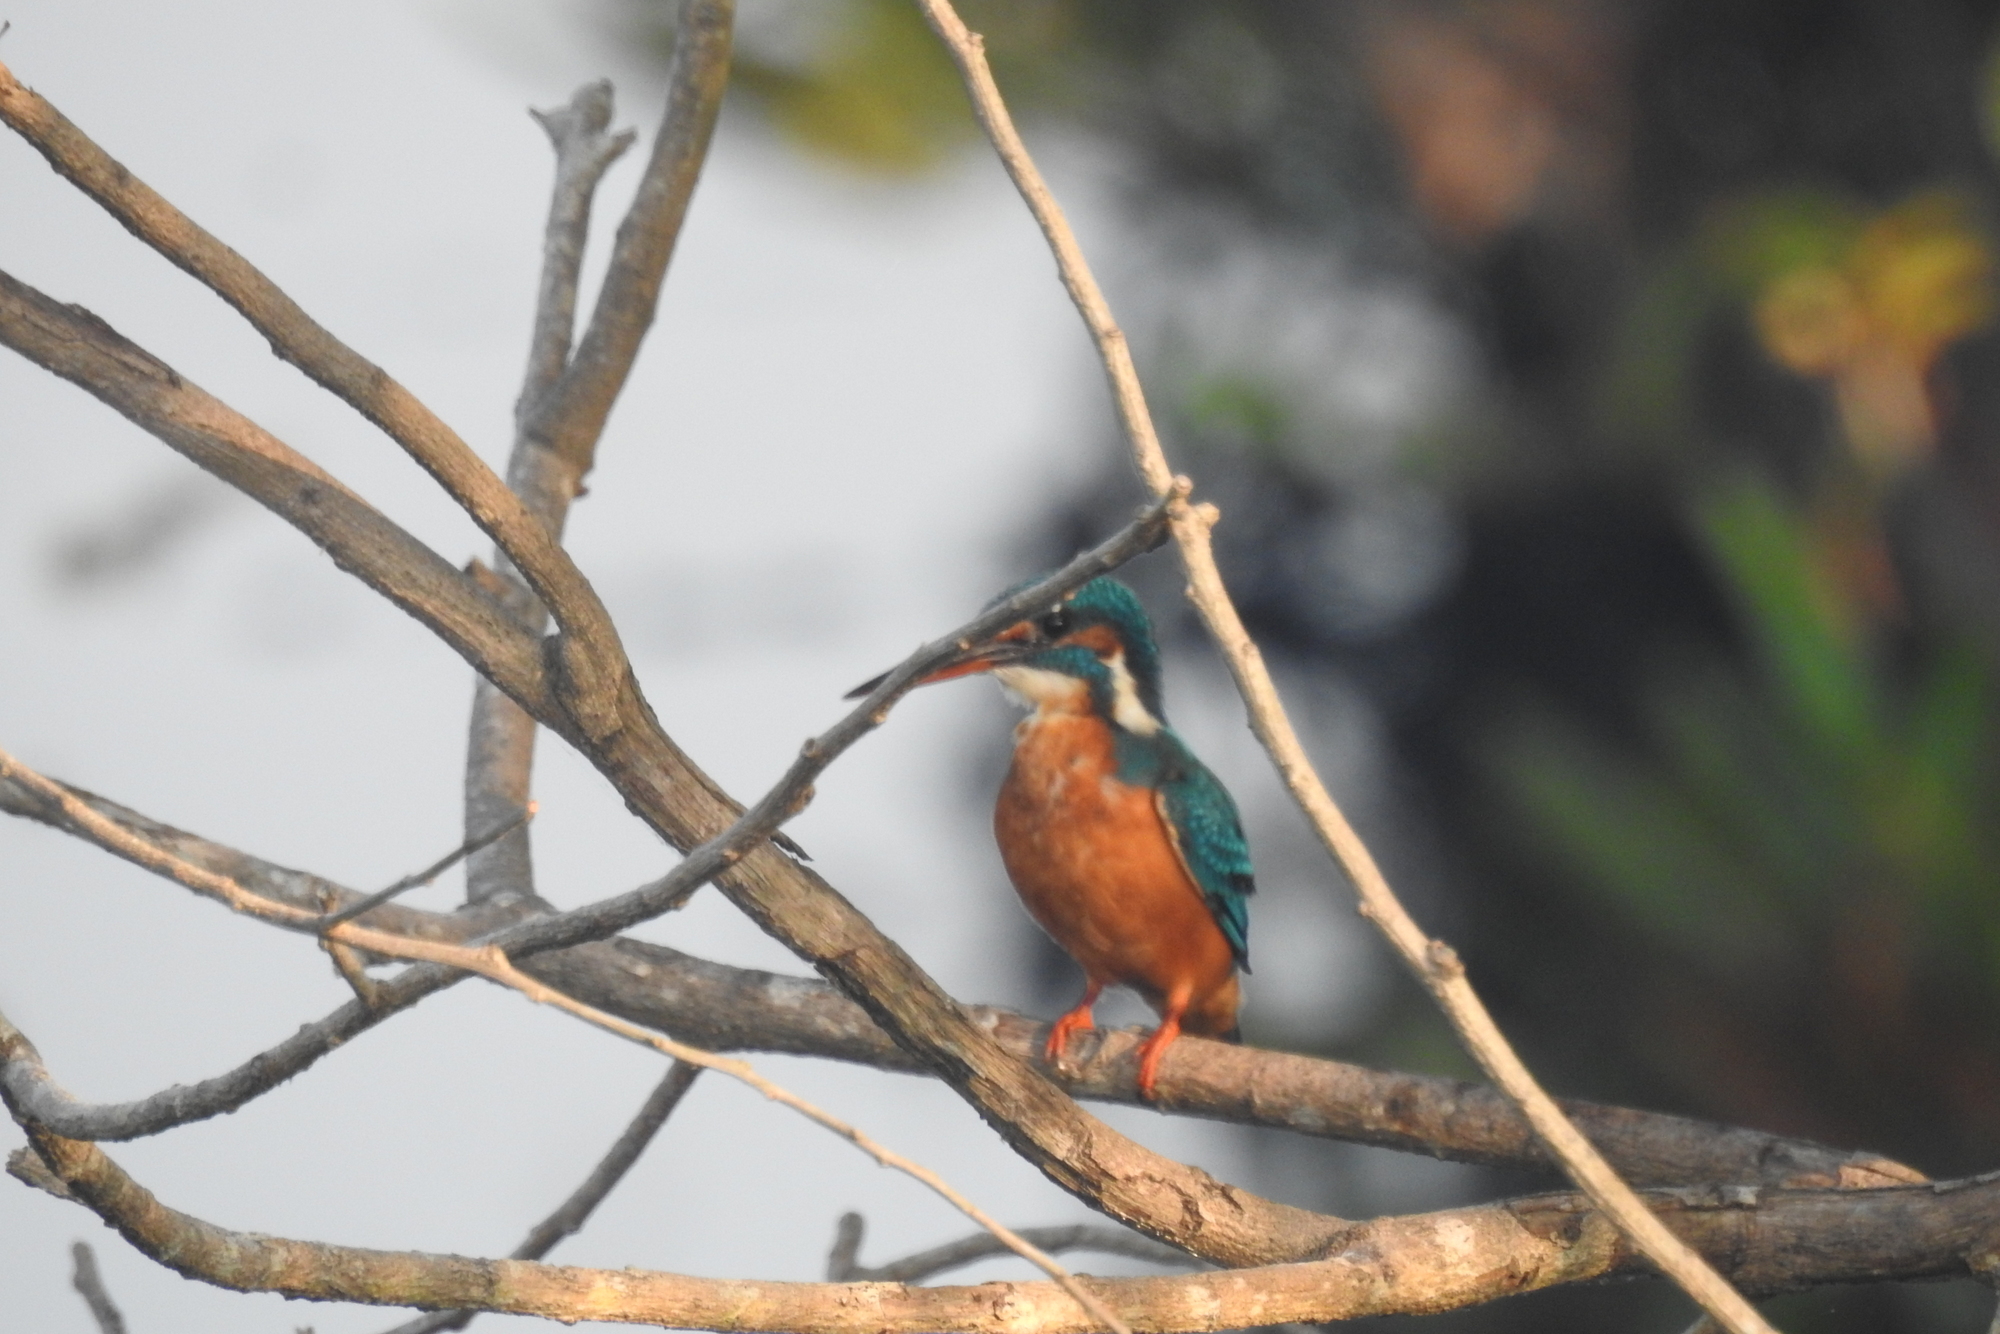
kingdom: Animalia
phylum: Chordata
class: Aves
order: Coraciiformes
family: Alcedinidae
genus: Alcedo
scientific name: Alcedo atthis
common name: Common kingfisher
